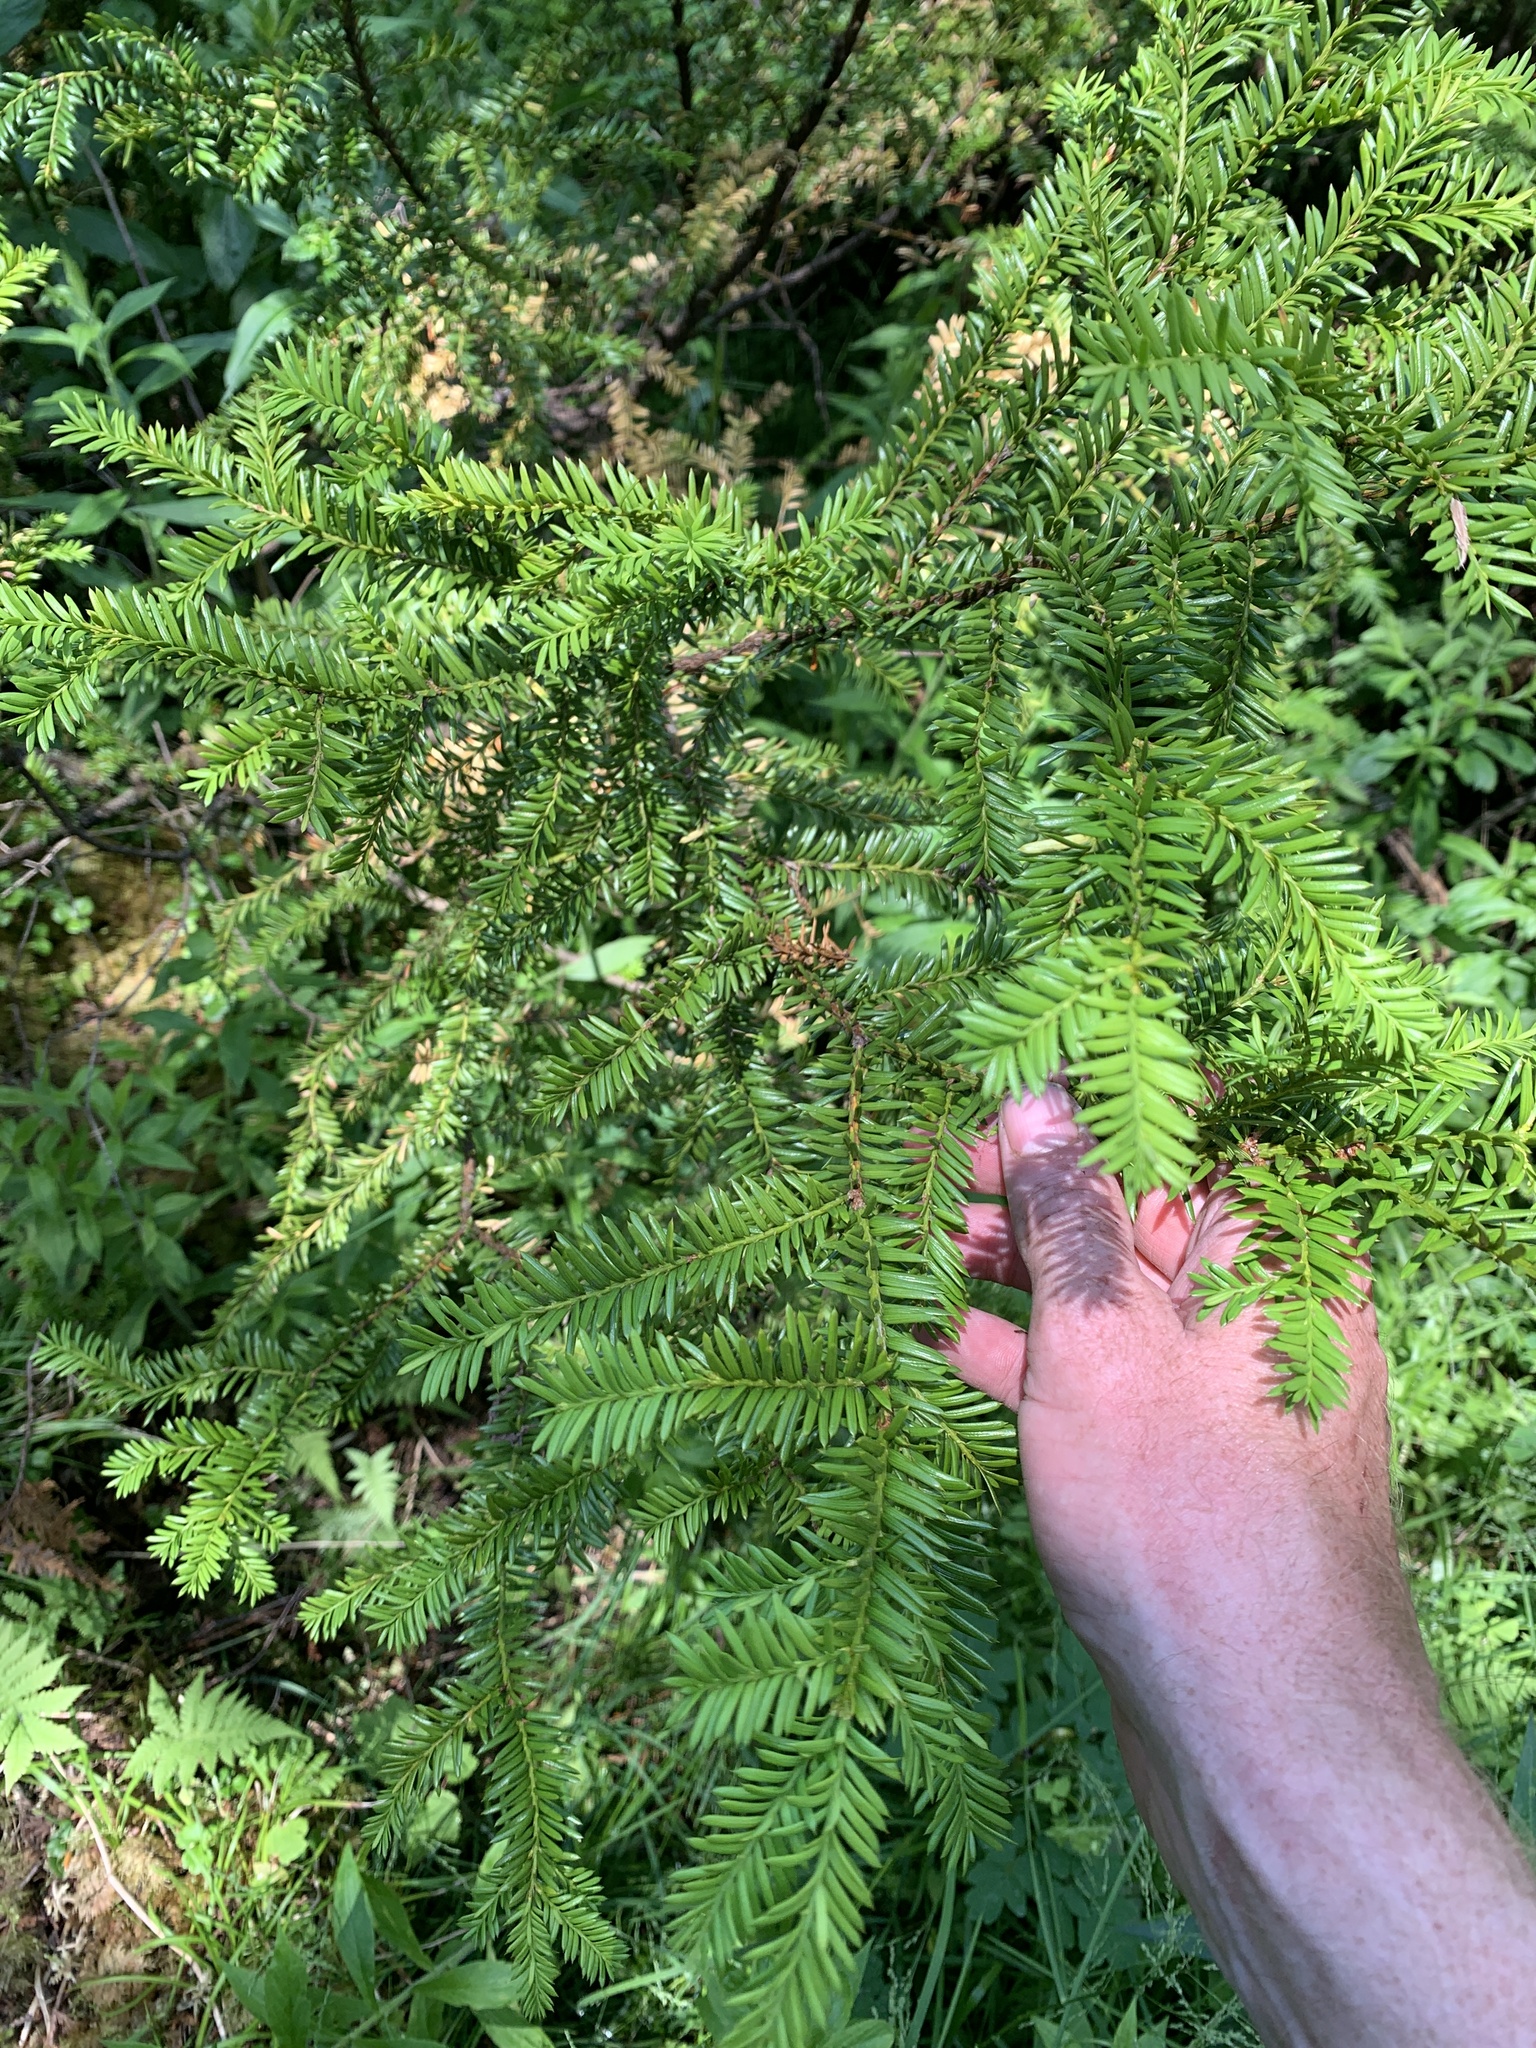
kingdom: Plantae
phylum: Tracheophyta
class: Pinopsida
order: Pinales
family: Taxaceae
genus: Taxus
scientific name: Taxus canadensis
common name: American yew
